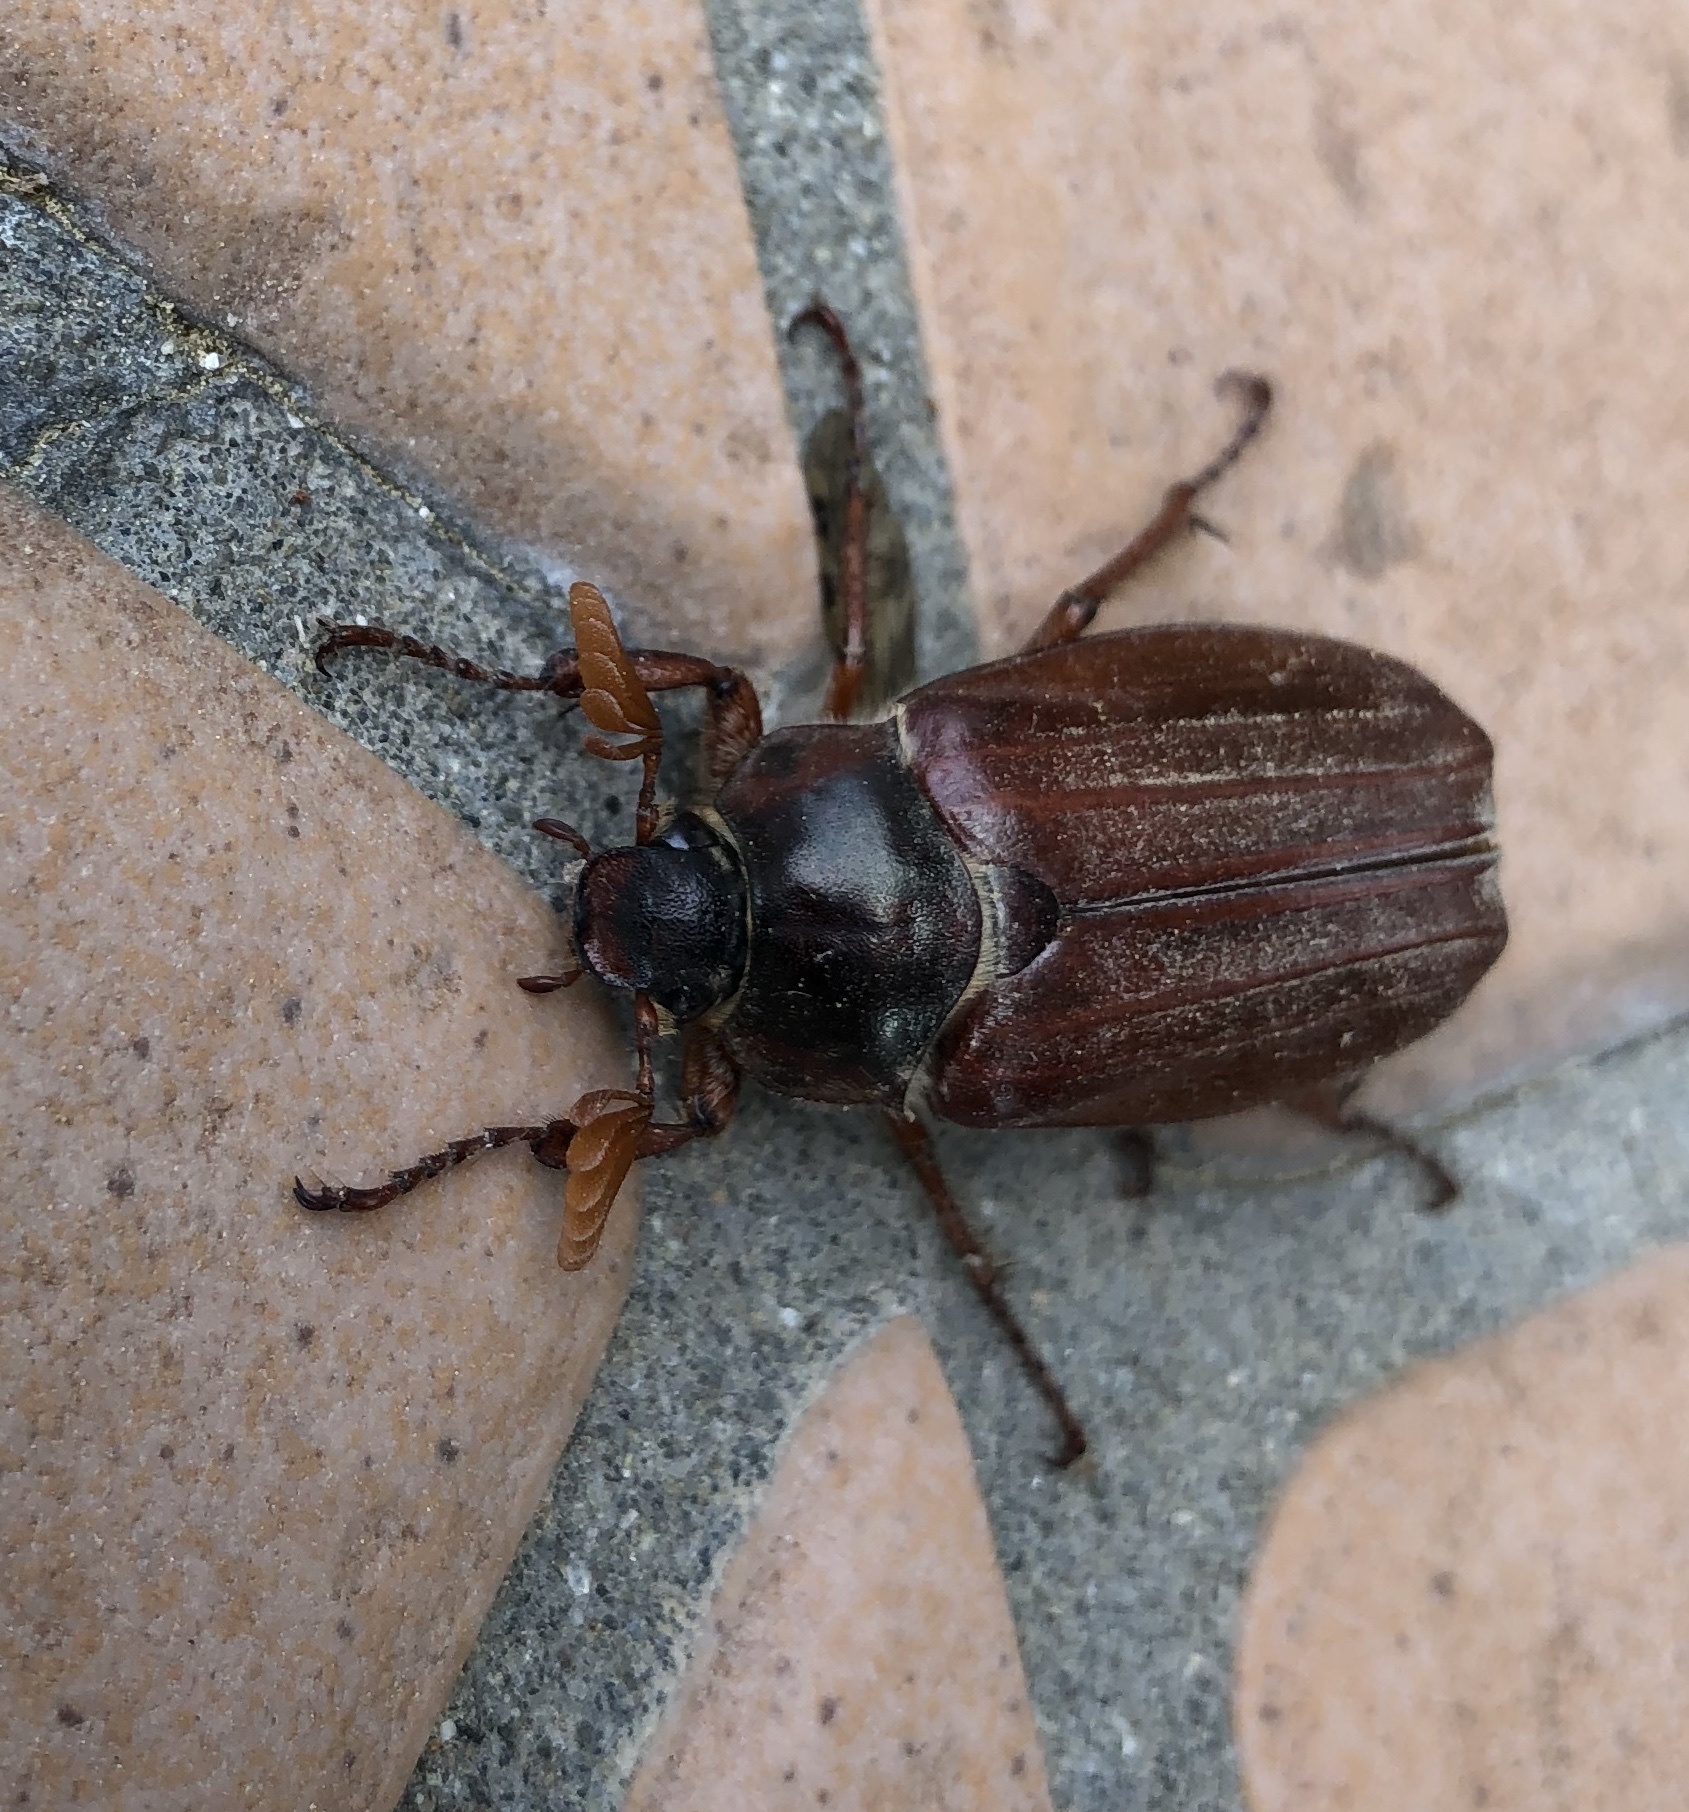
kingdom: Animalia
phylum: Arthropoda
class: Insecta
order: Coleoptera
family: Scarabaeidae
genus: Melolontha
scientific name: Melolontha melolontha
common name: Cockchafer maybeetle
